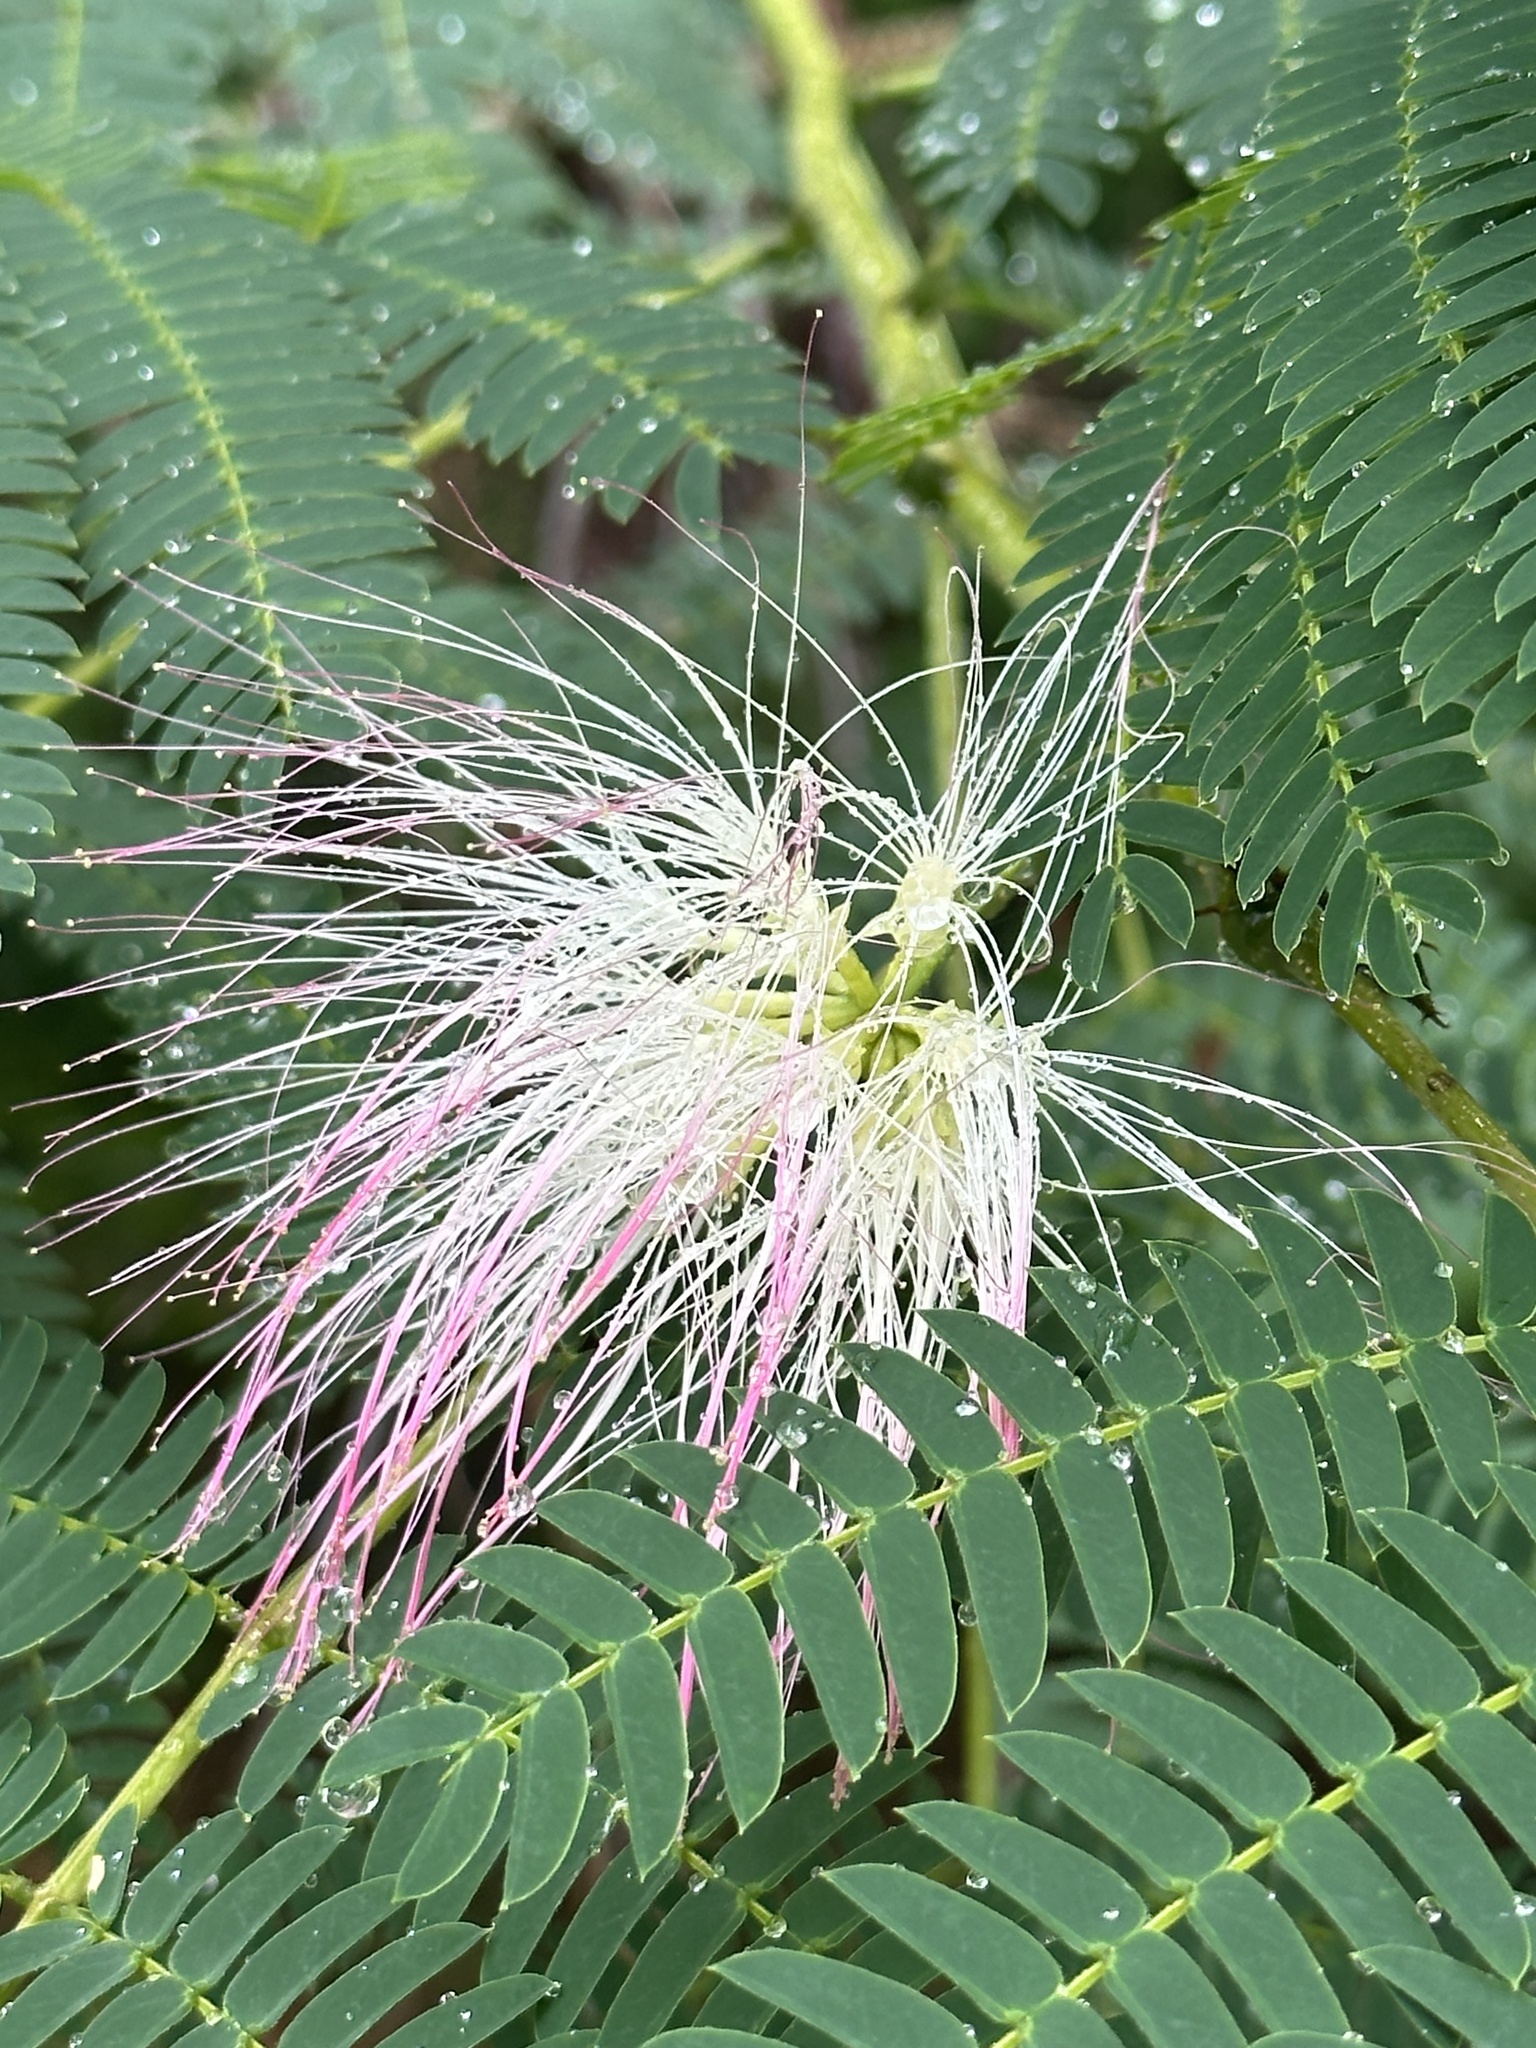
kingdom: Plantae
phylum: Tracheophyta
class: Magnoliopsida
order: Fabales
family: Fabaceae
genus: Albizia
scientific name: Albizia julibrissin
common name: Silktree
